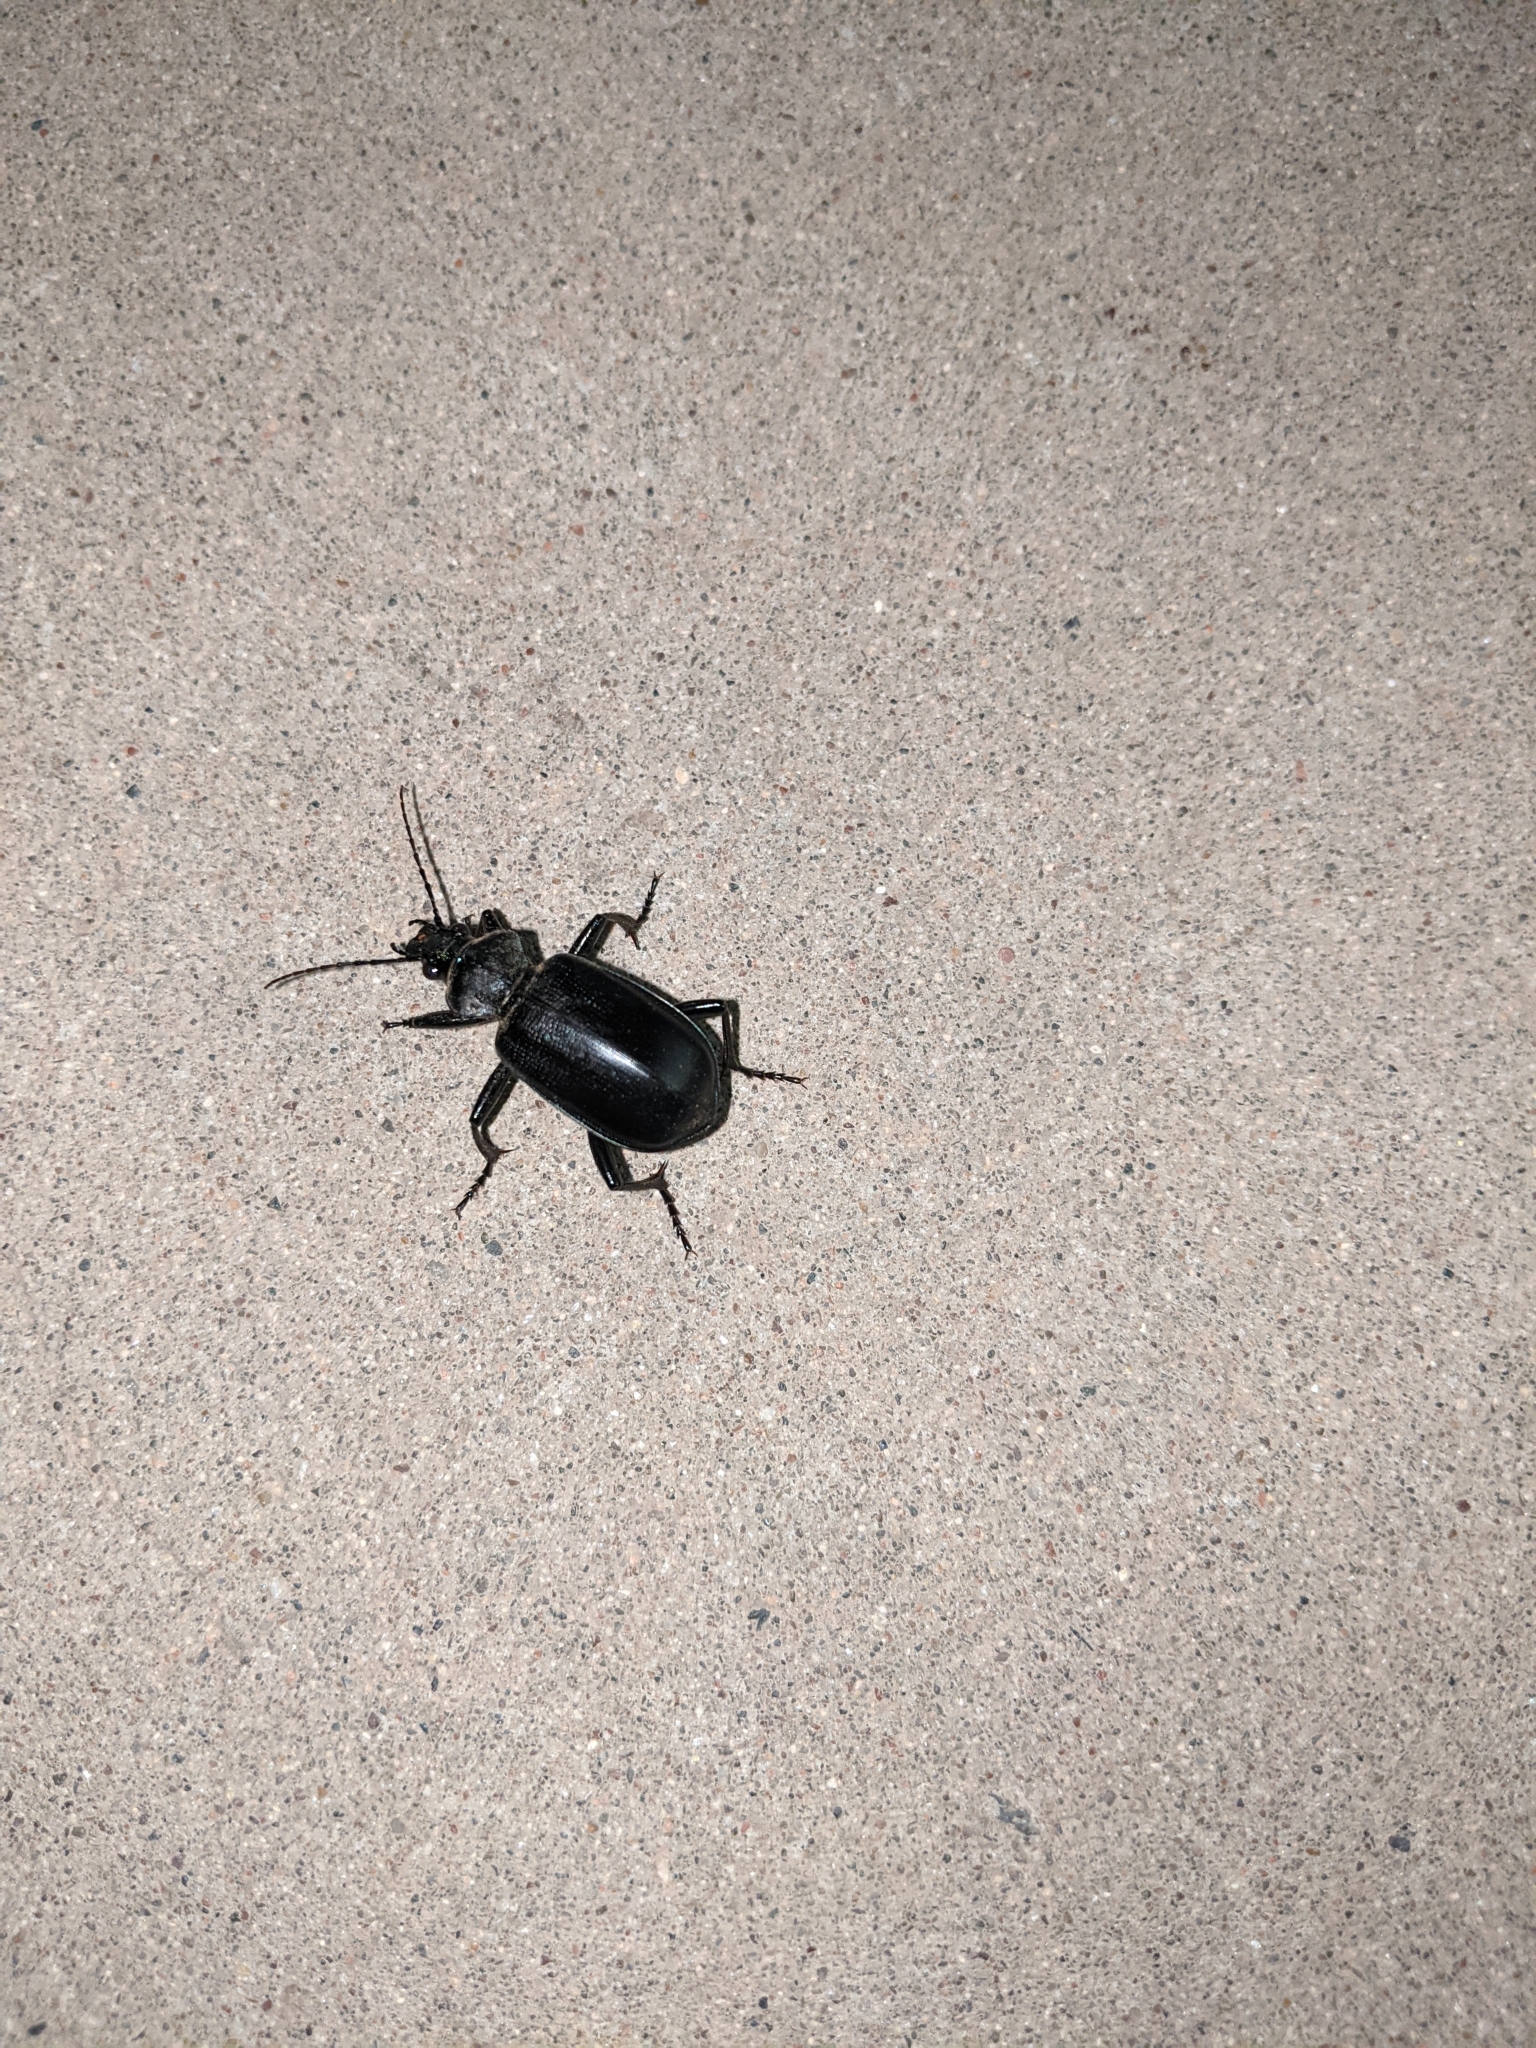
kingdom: Animalia
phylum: Arthropoda
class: Insecta
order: Coleoptera
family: Carabidae
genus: Calosoma
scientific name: Calosoma
